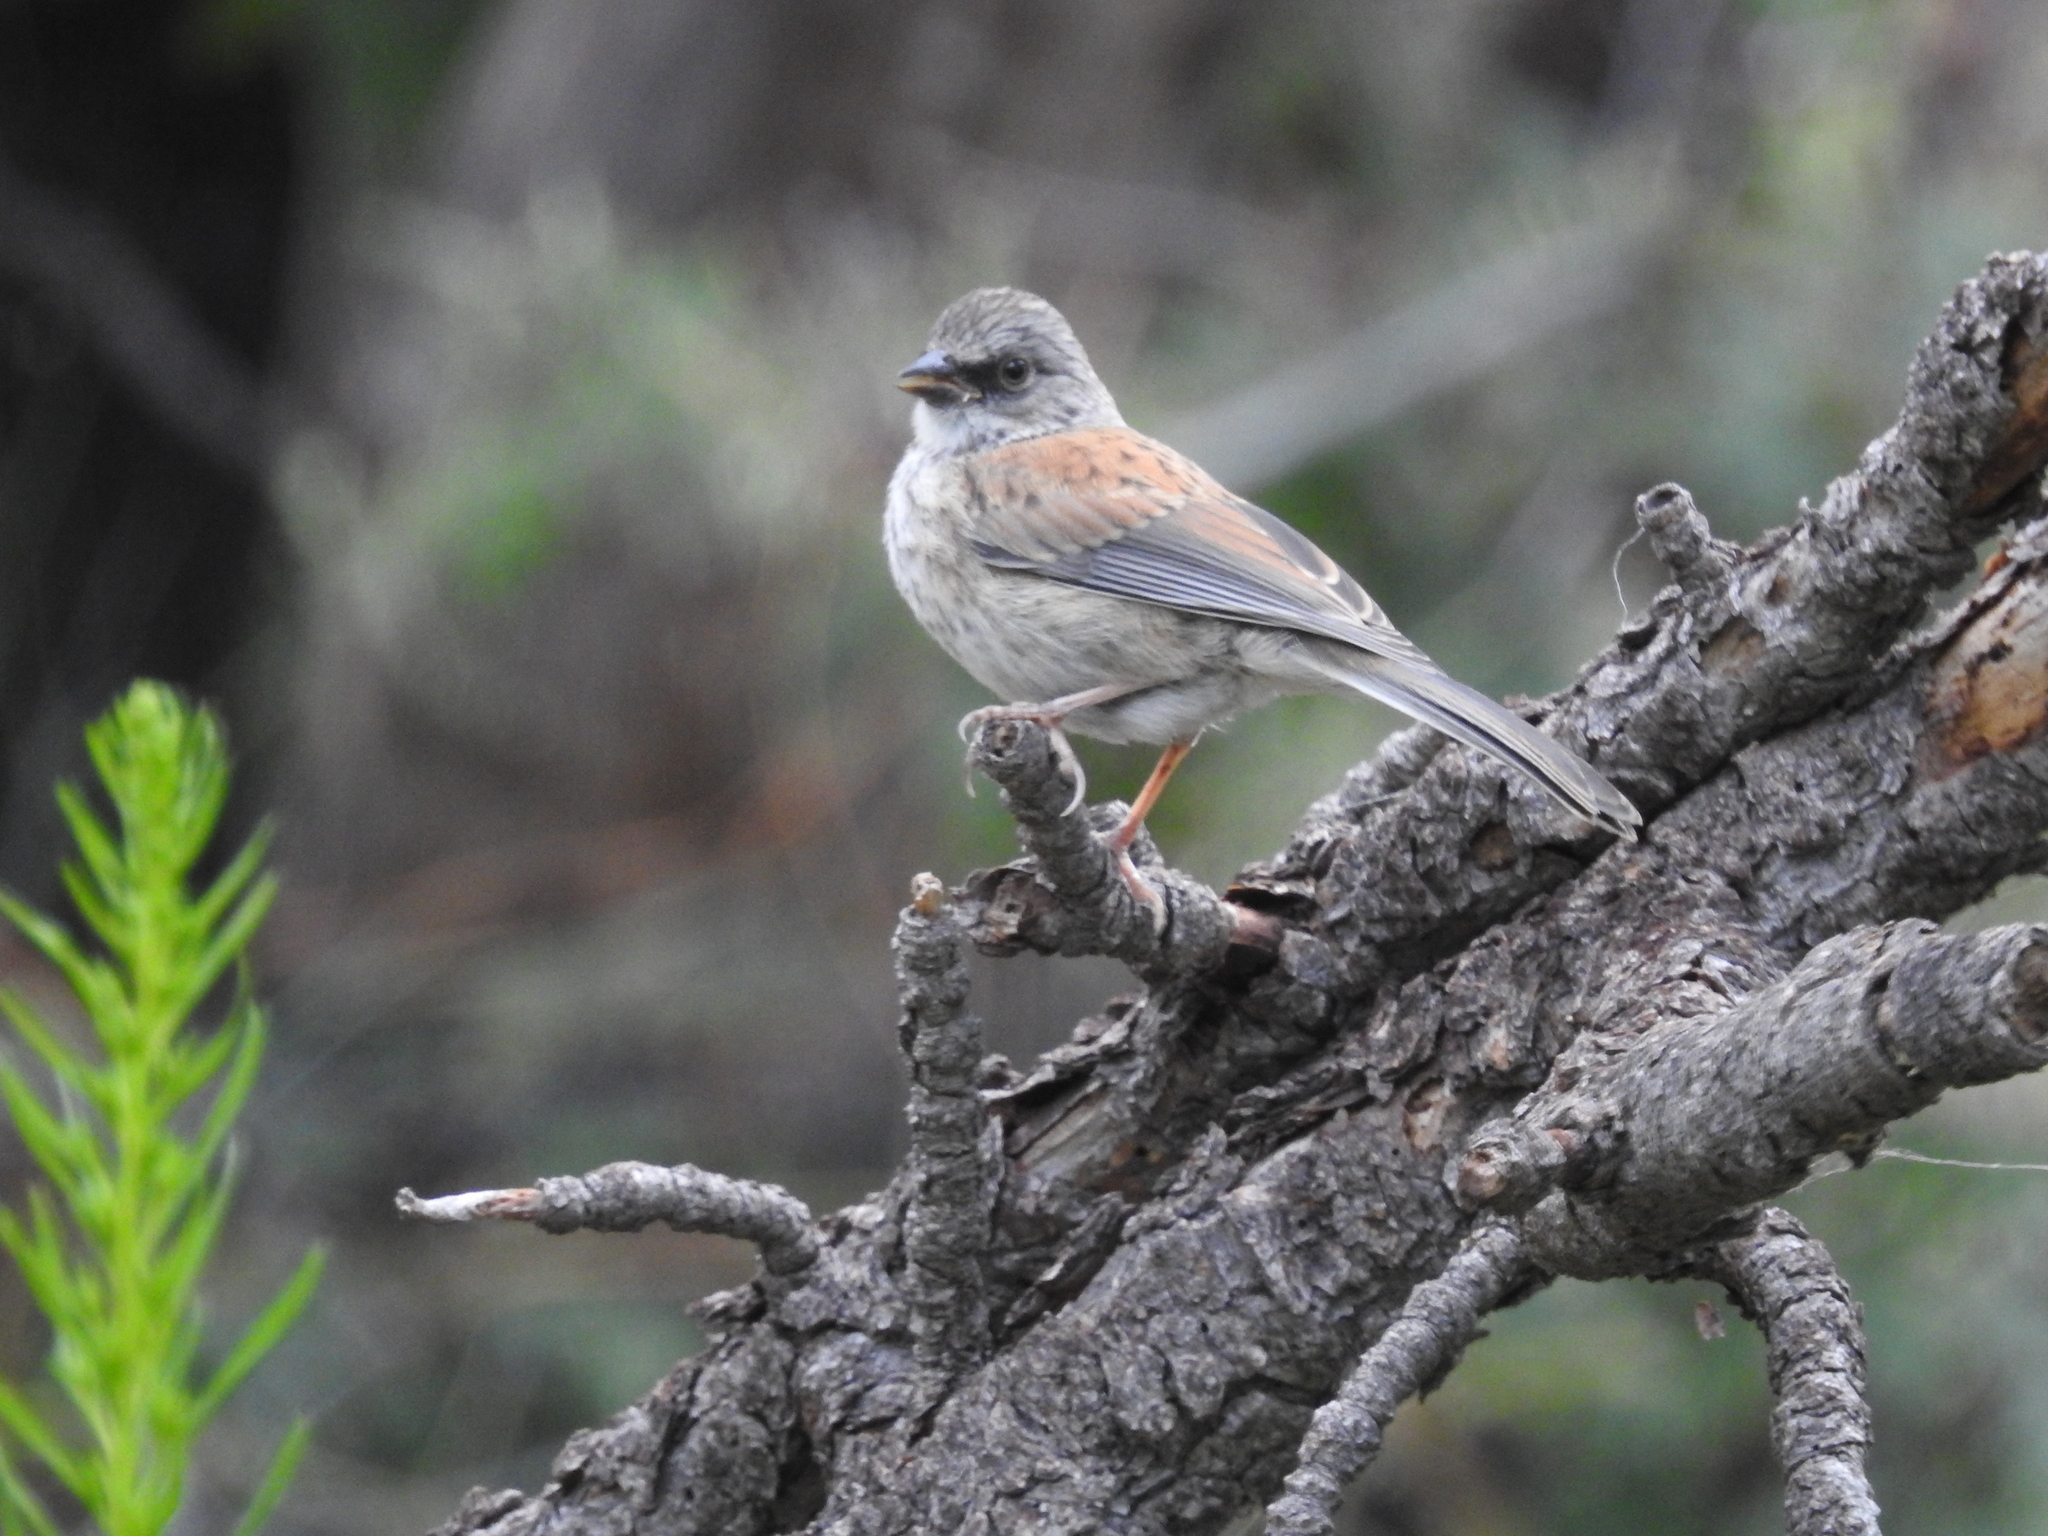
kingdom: Animalia
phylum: Chordata
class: Aves
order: Passeriformes
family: Passerellidae
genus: Junco
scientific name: Junco phaeonotus
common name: Yellow-eyed junco
